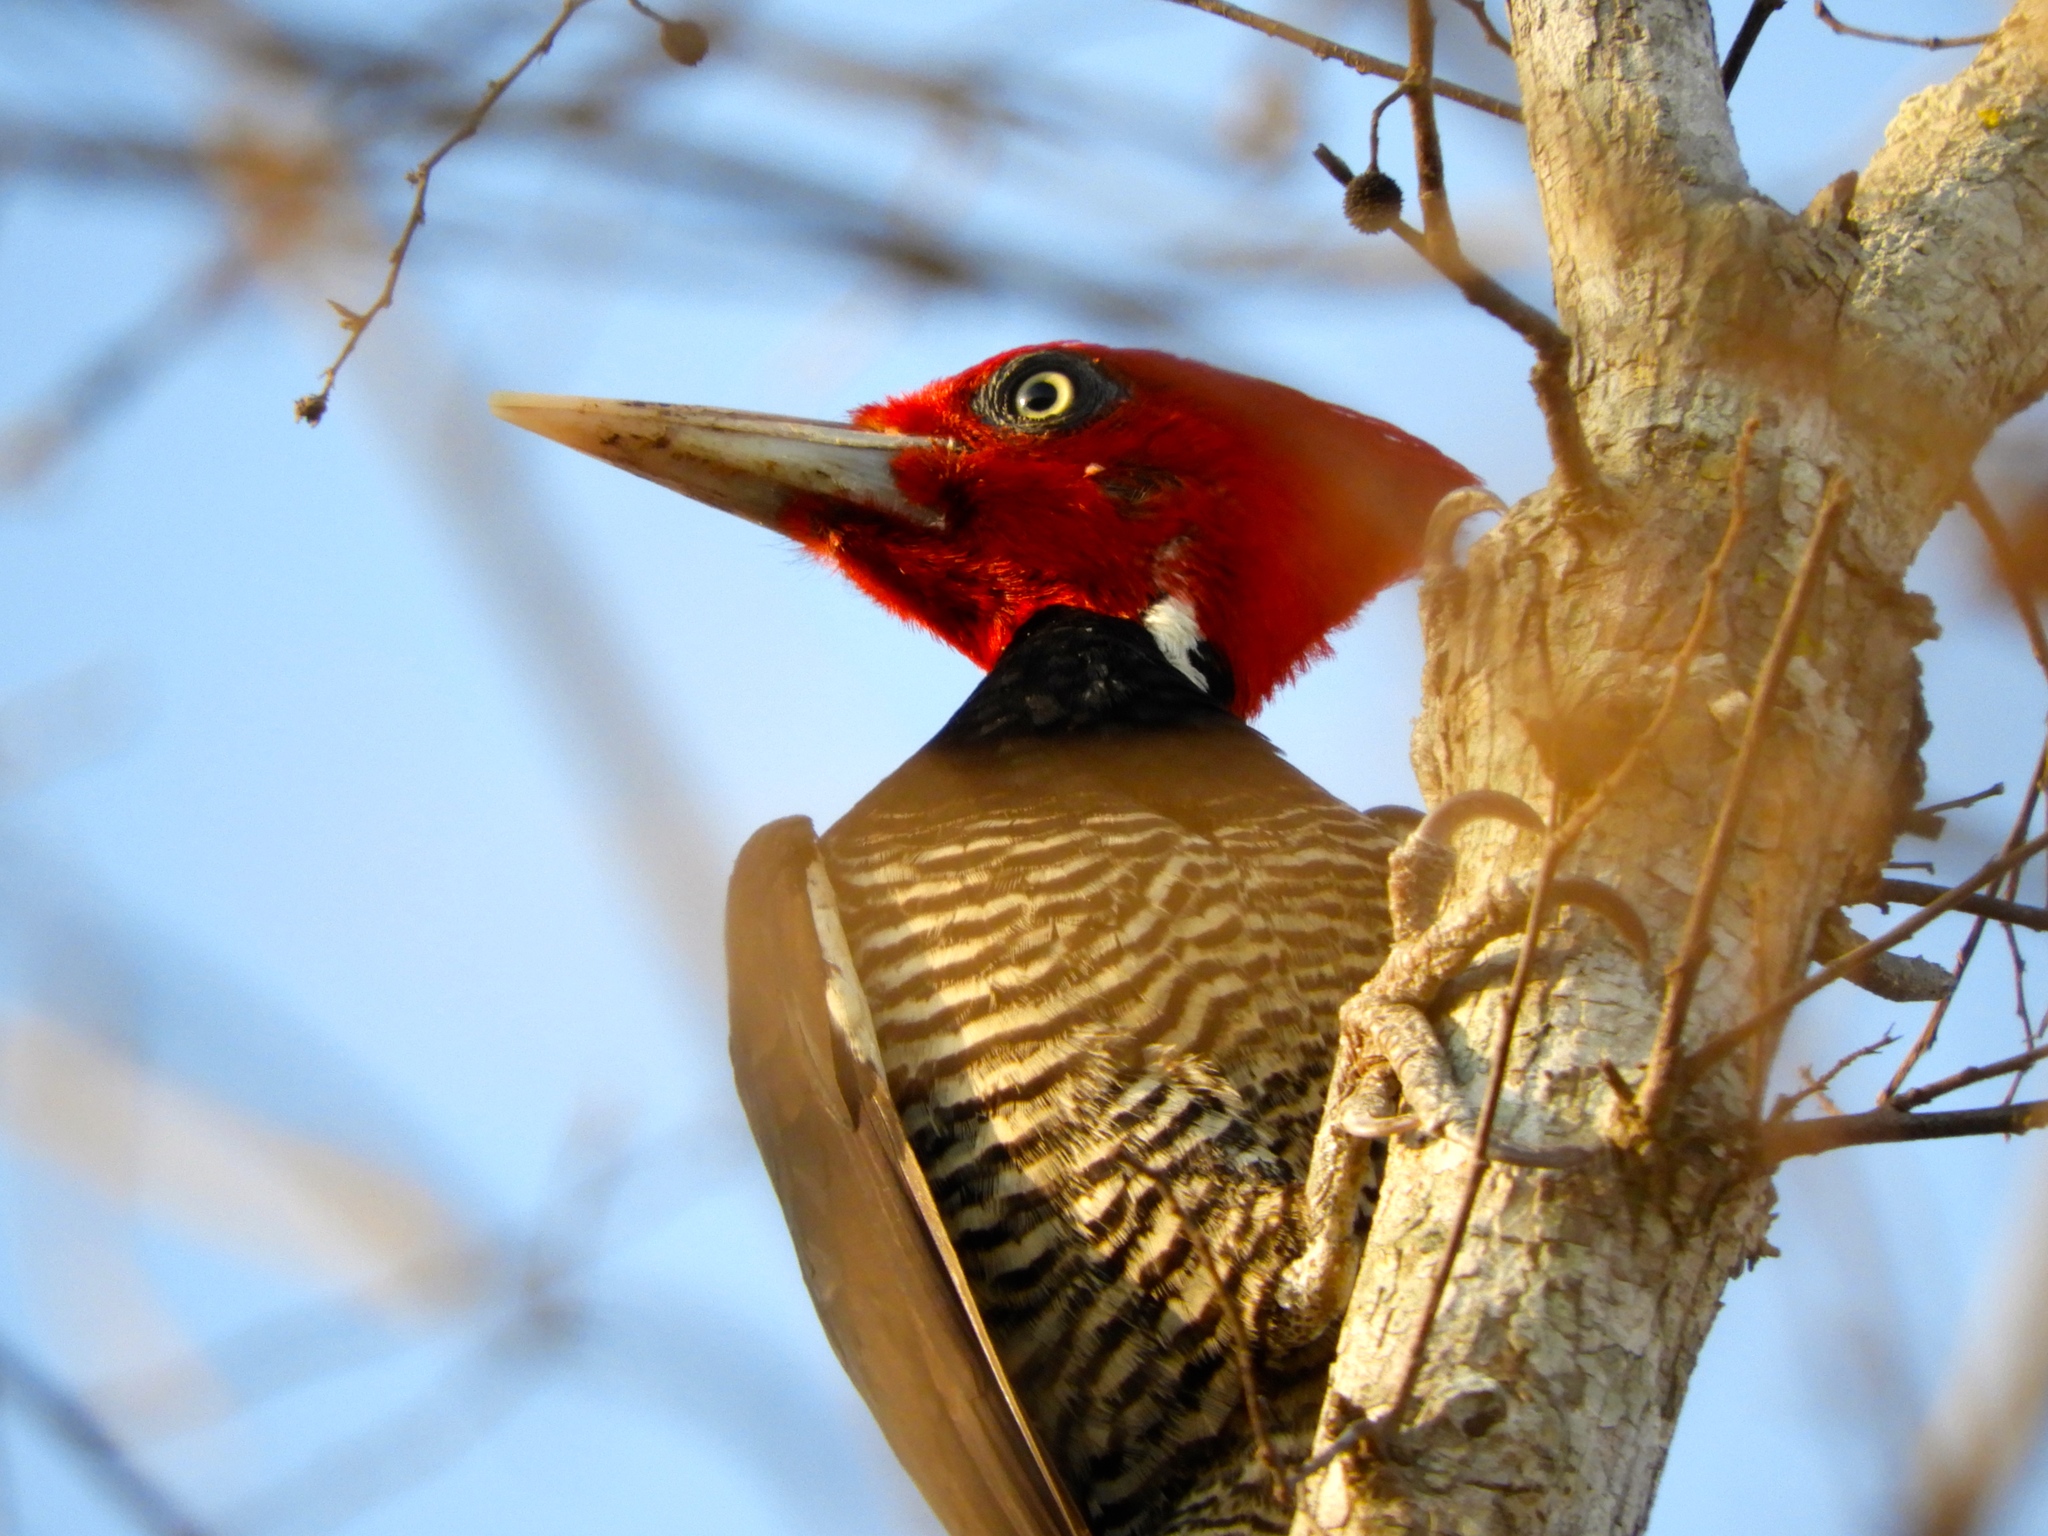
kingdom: Animalia
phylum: Chordata
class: Aves
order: Piciformes
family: Picidae
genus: Campephilus
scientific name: Campephilus guatemalensis
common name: Pale-billed woodpecker
